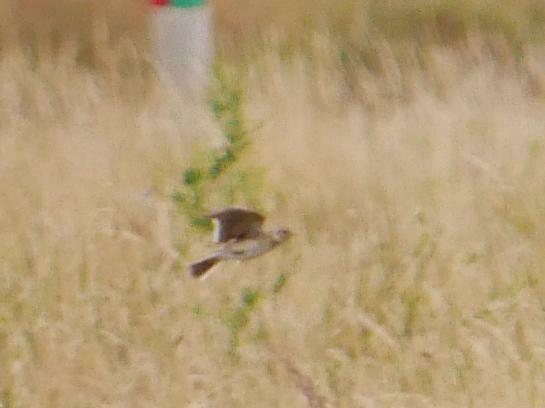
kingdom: Animalia
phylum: Chordata
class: Aves
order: Passeriformes
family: Alaudidae
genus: Alauda
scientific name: Alauda arvensis
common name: Eurasian skylark
